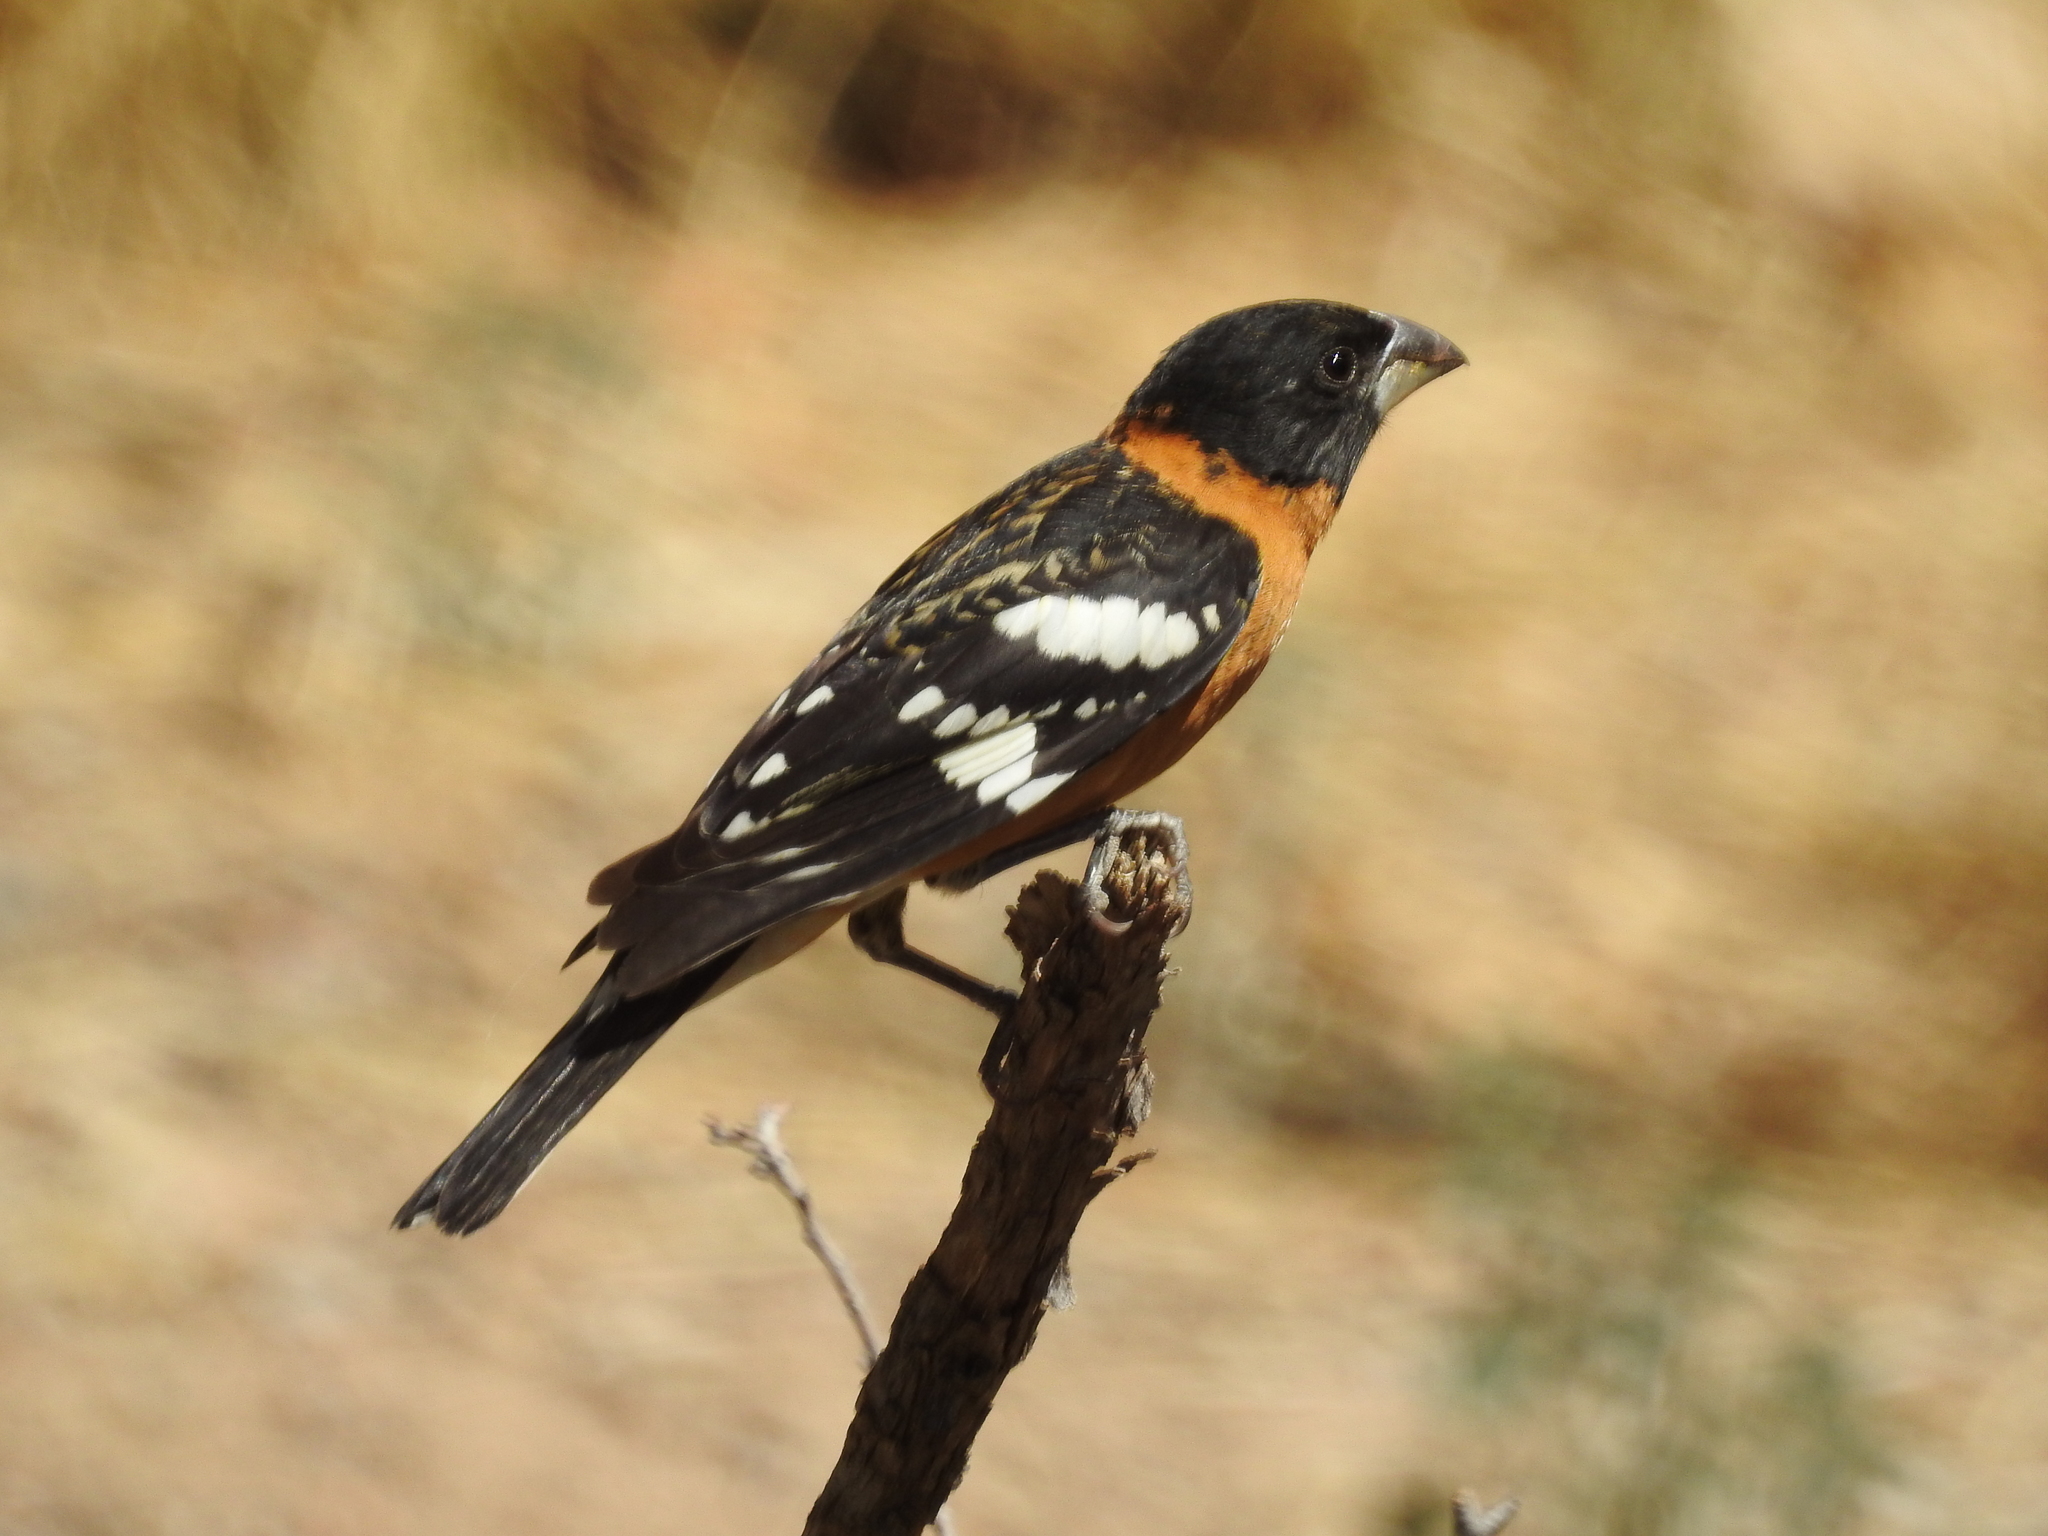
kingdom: Animalia
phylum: Chordata
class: Aves
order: Passeriformes
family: Cardinalidae
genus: Pheucticus
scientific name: Pheucticus melanocephalus
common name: Black-headed grosbeak
